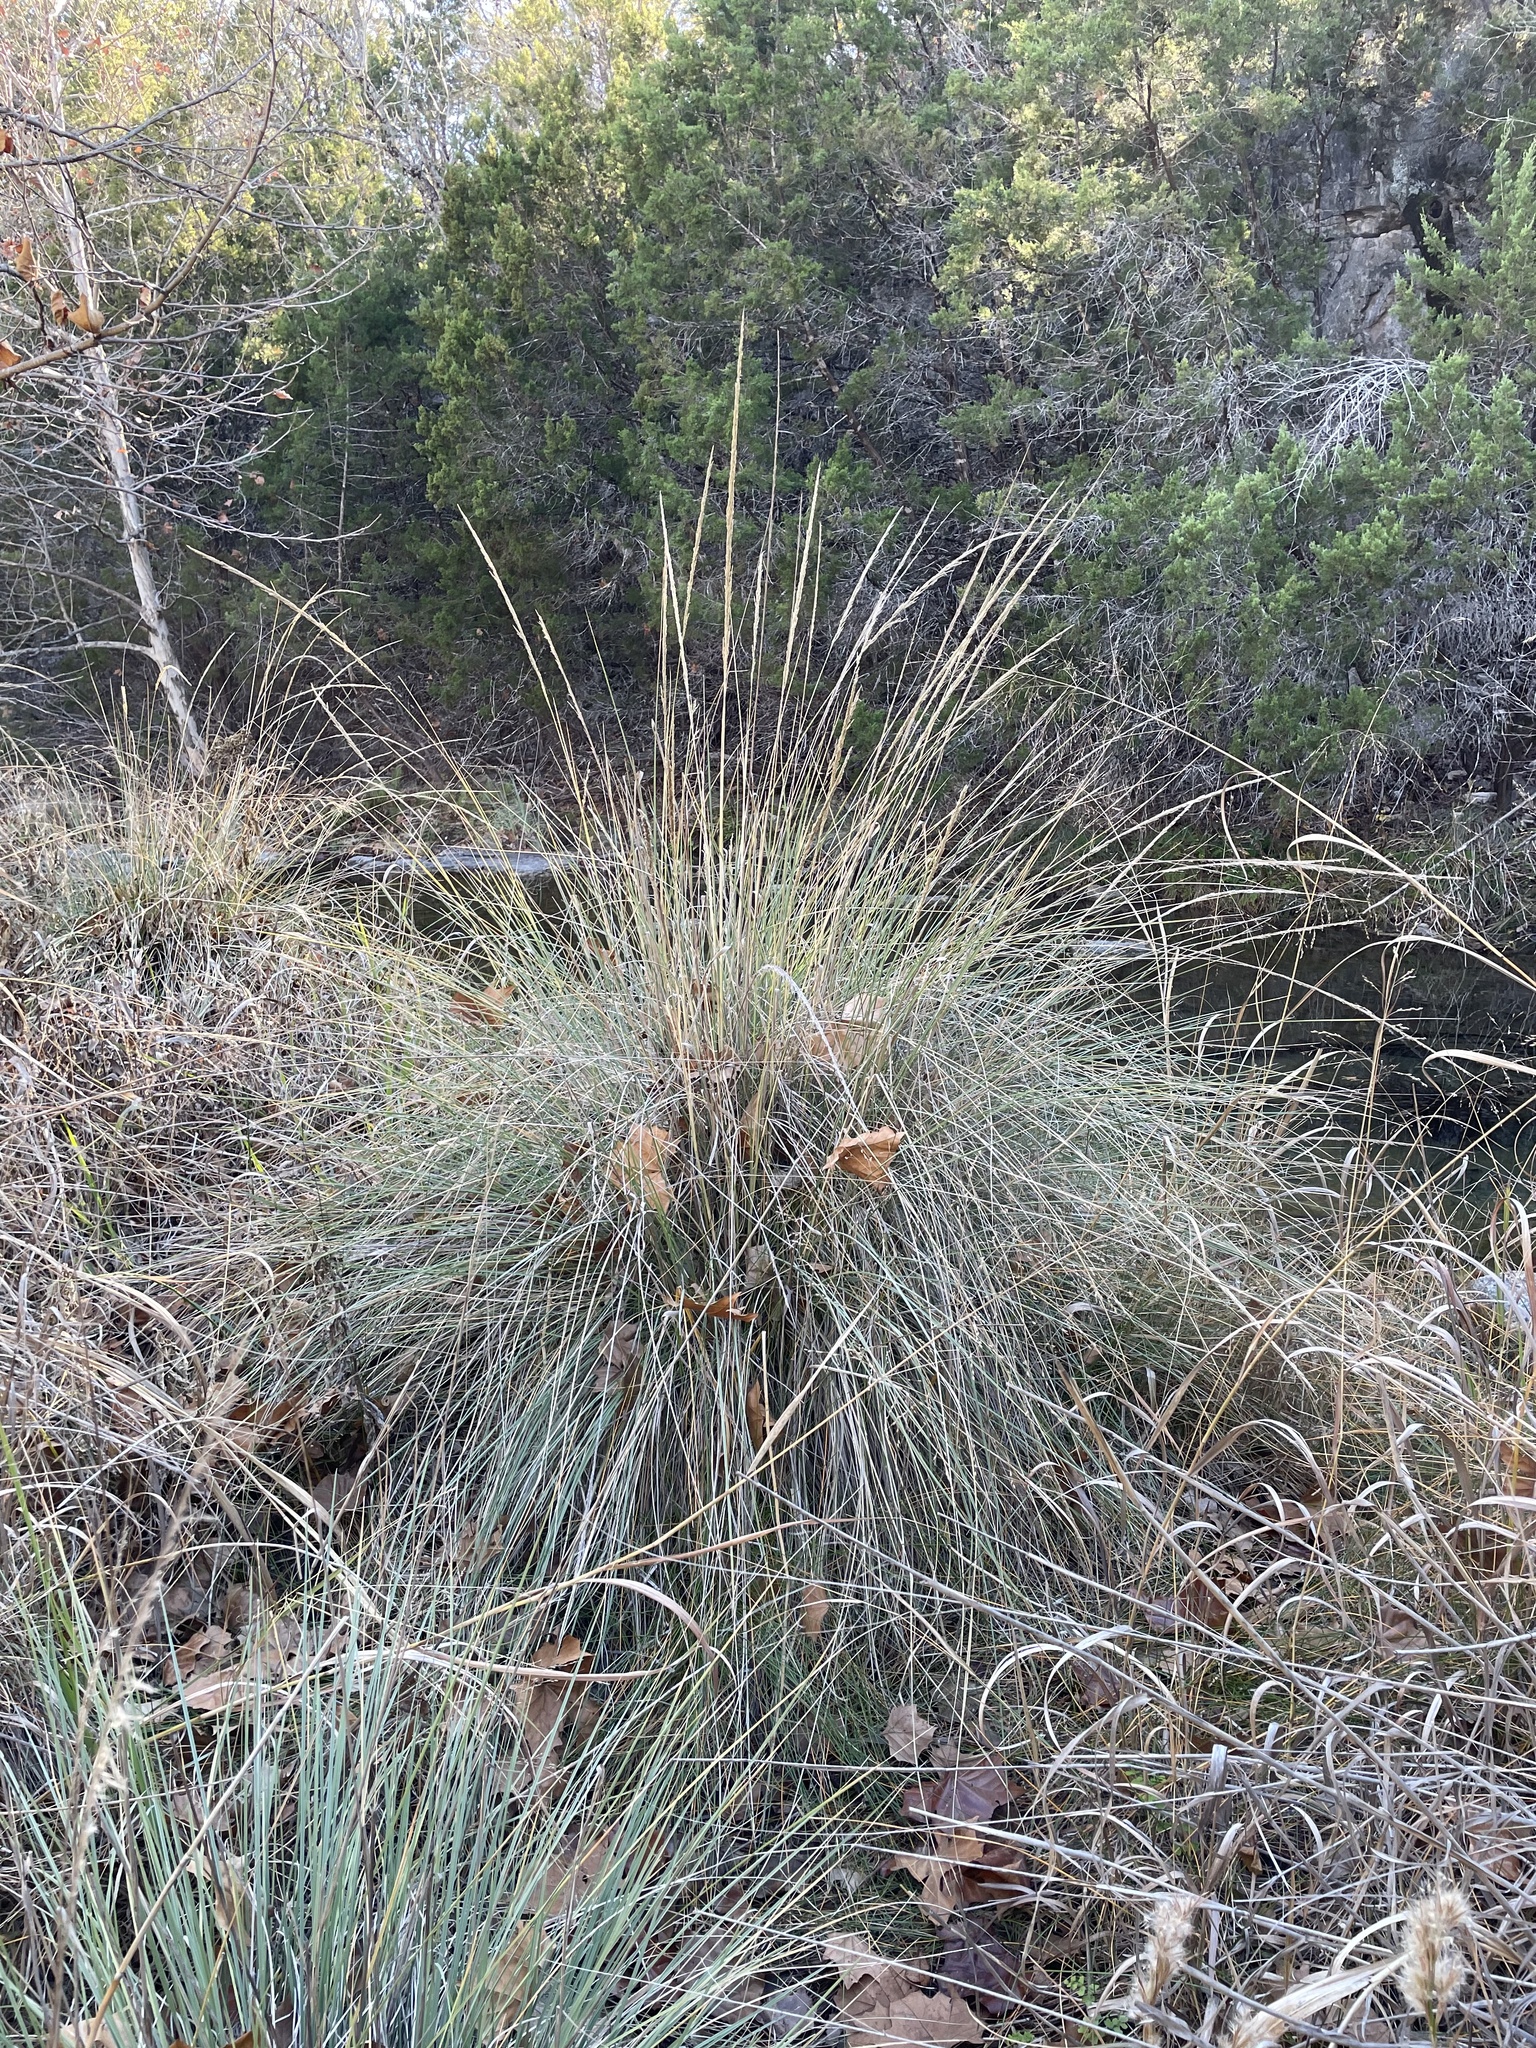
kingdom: Plantae
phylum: Tracheophyta
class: Liliopsida
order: Poales
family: Poaceae
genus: Muhlenbergia
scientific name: Muhlenbergia lindheimeri
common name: Lindheimer's muhly
